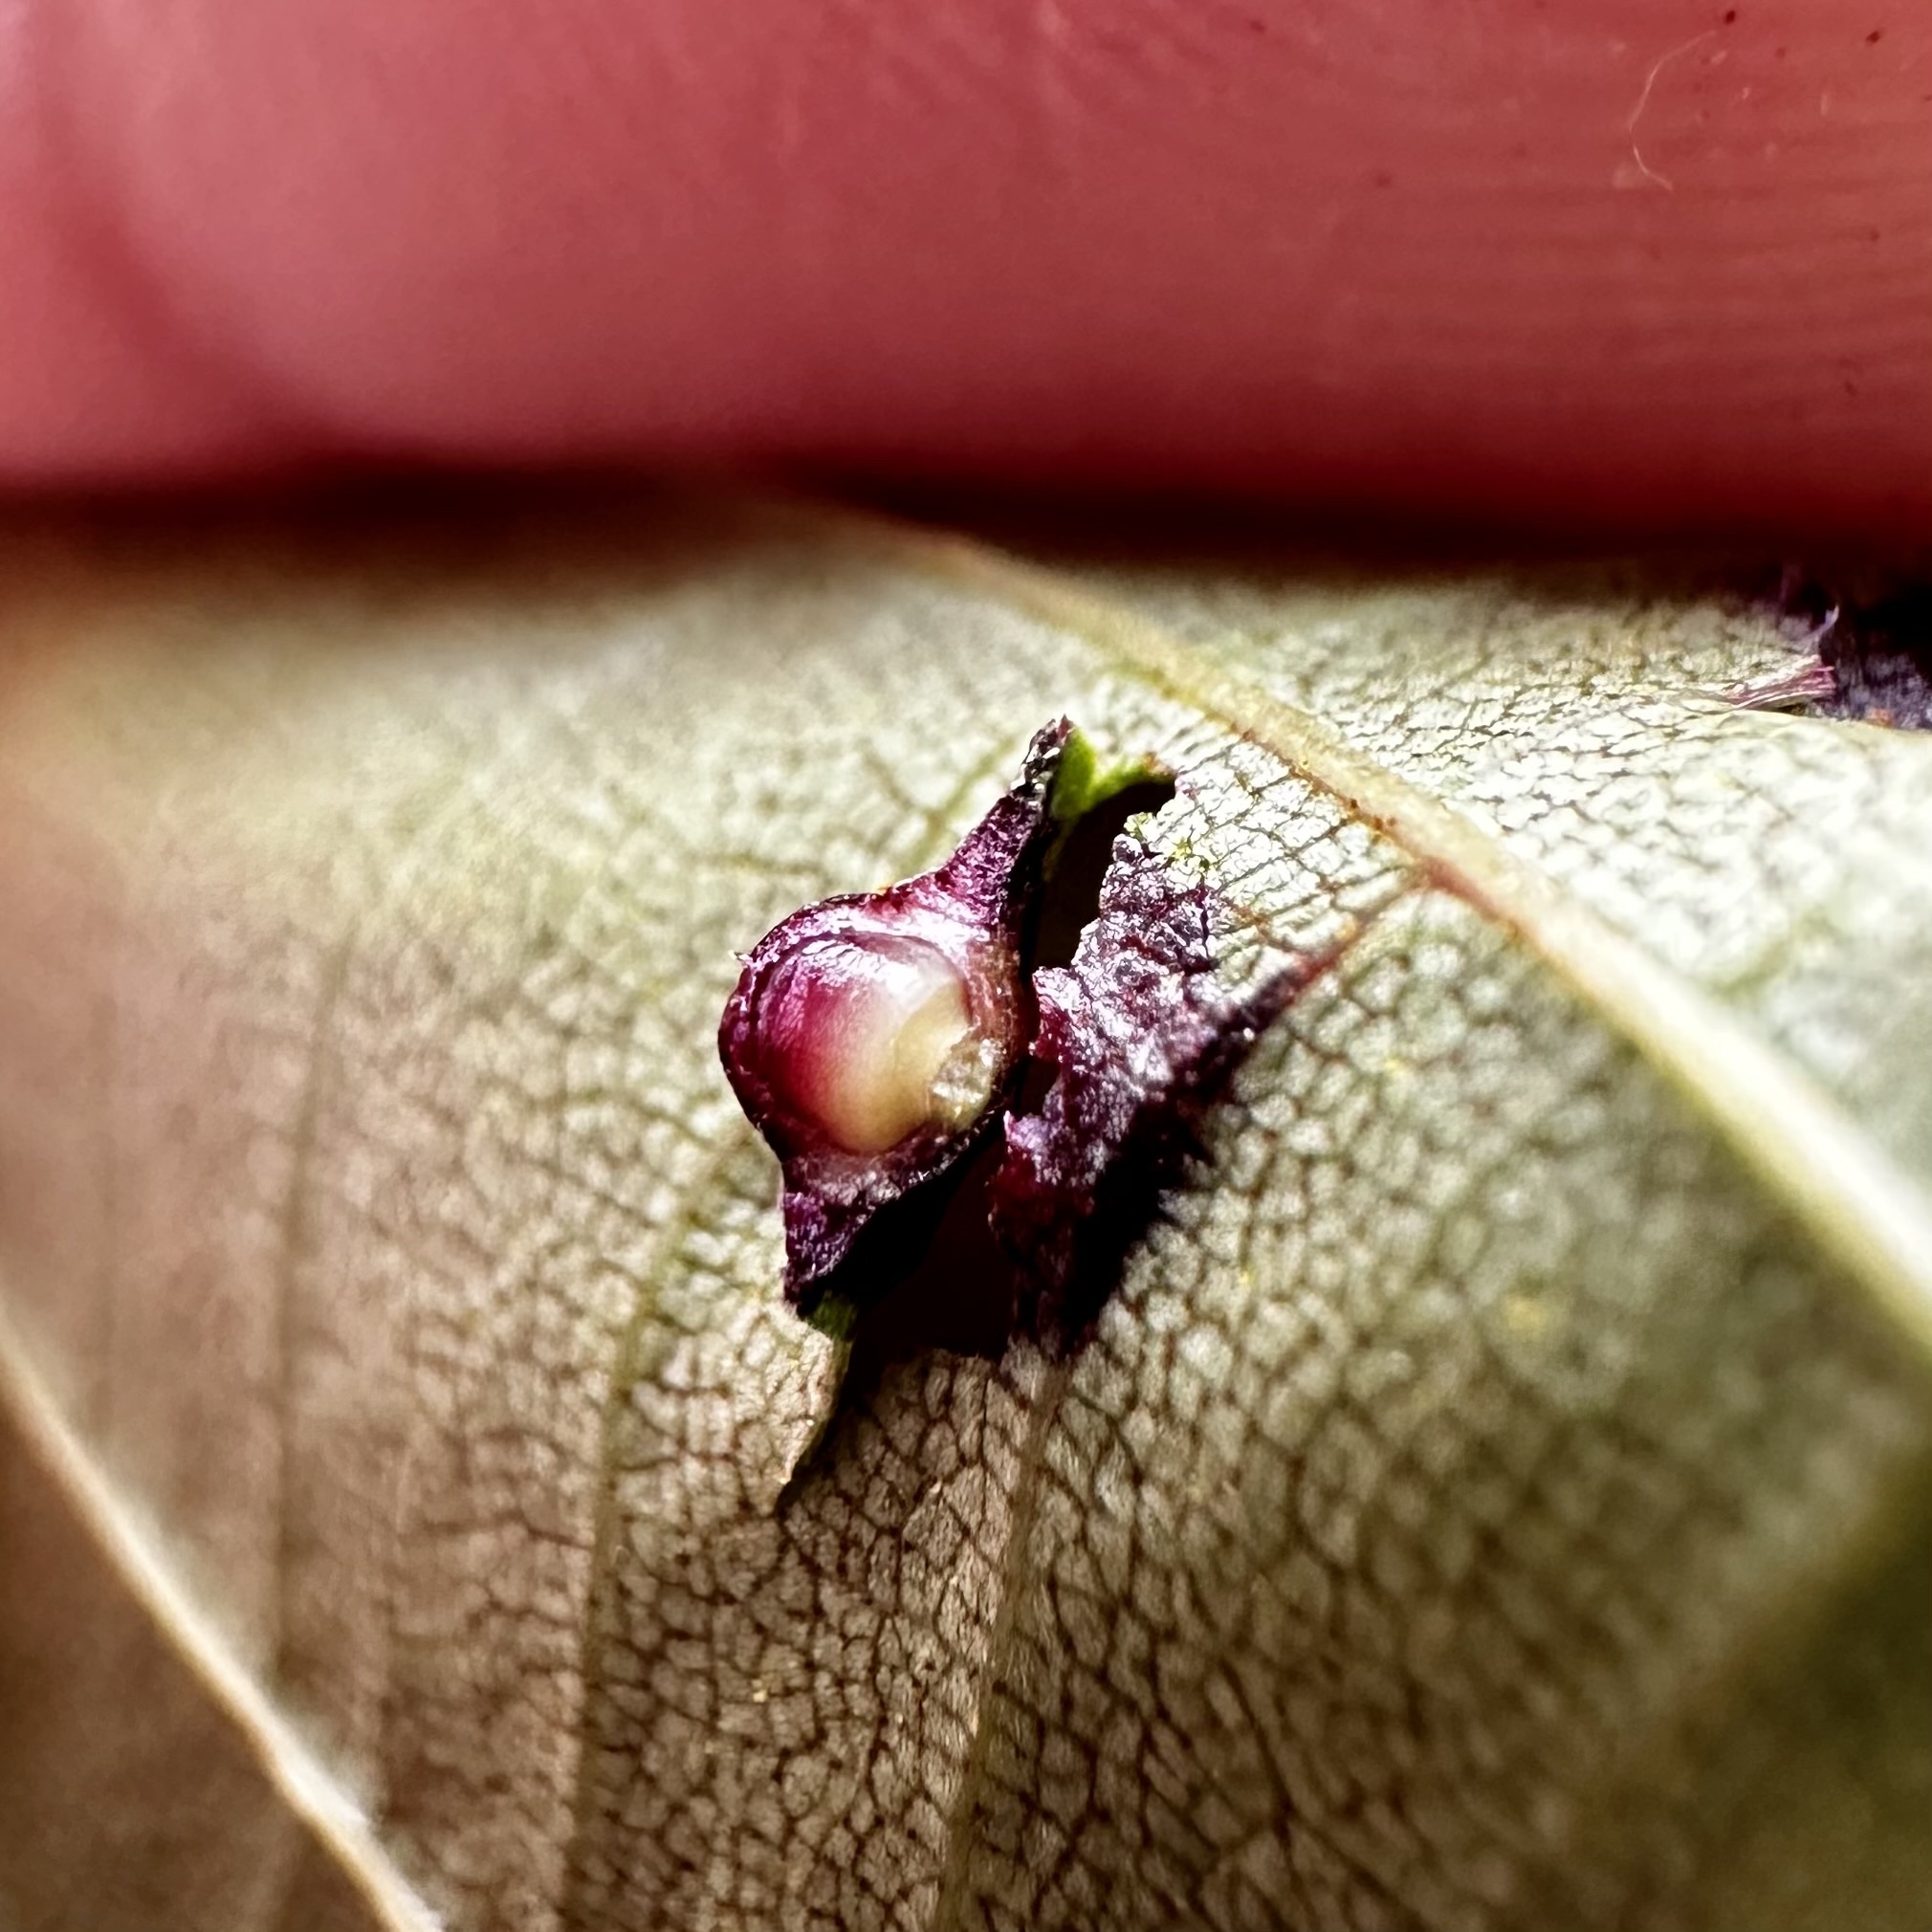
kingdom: Animalia
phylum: Arthropoda
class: Insecta
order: Diptera
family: Cecidomyiidae
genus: Caryomyia
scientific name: Caryomyia tubicola
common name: Hickory bullet gall midge
